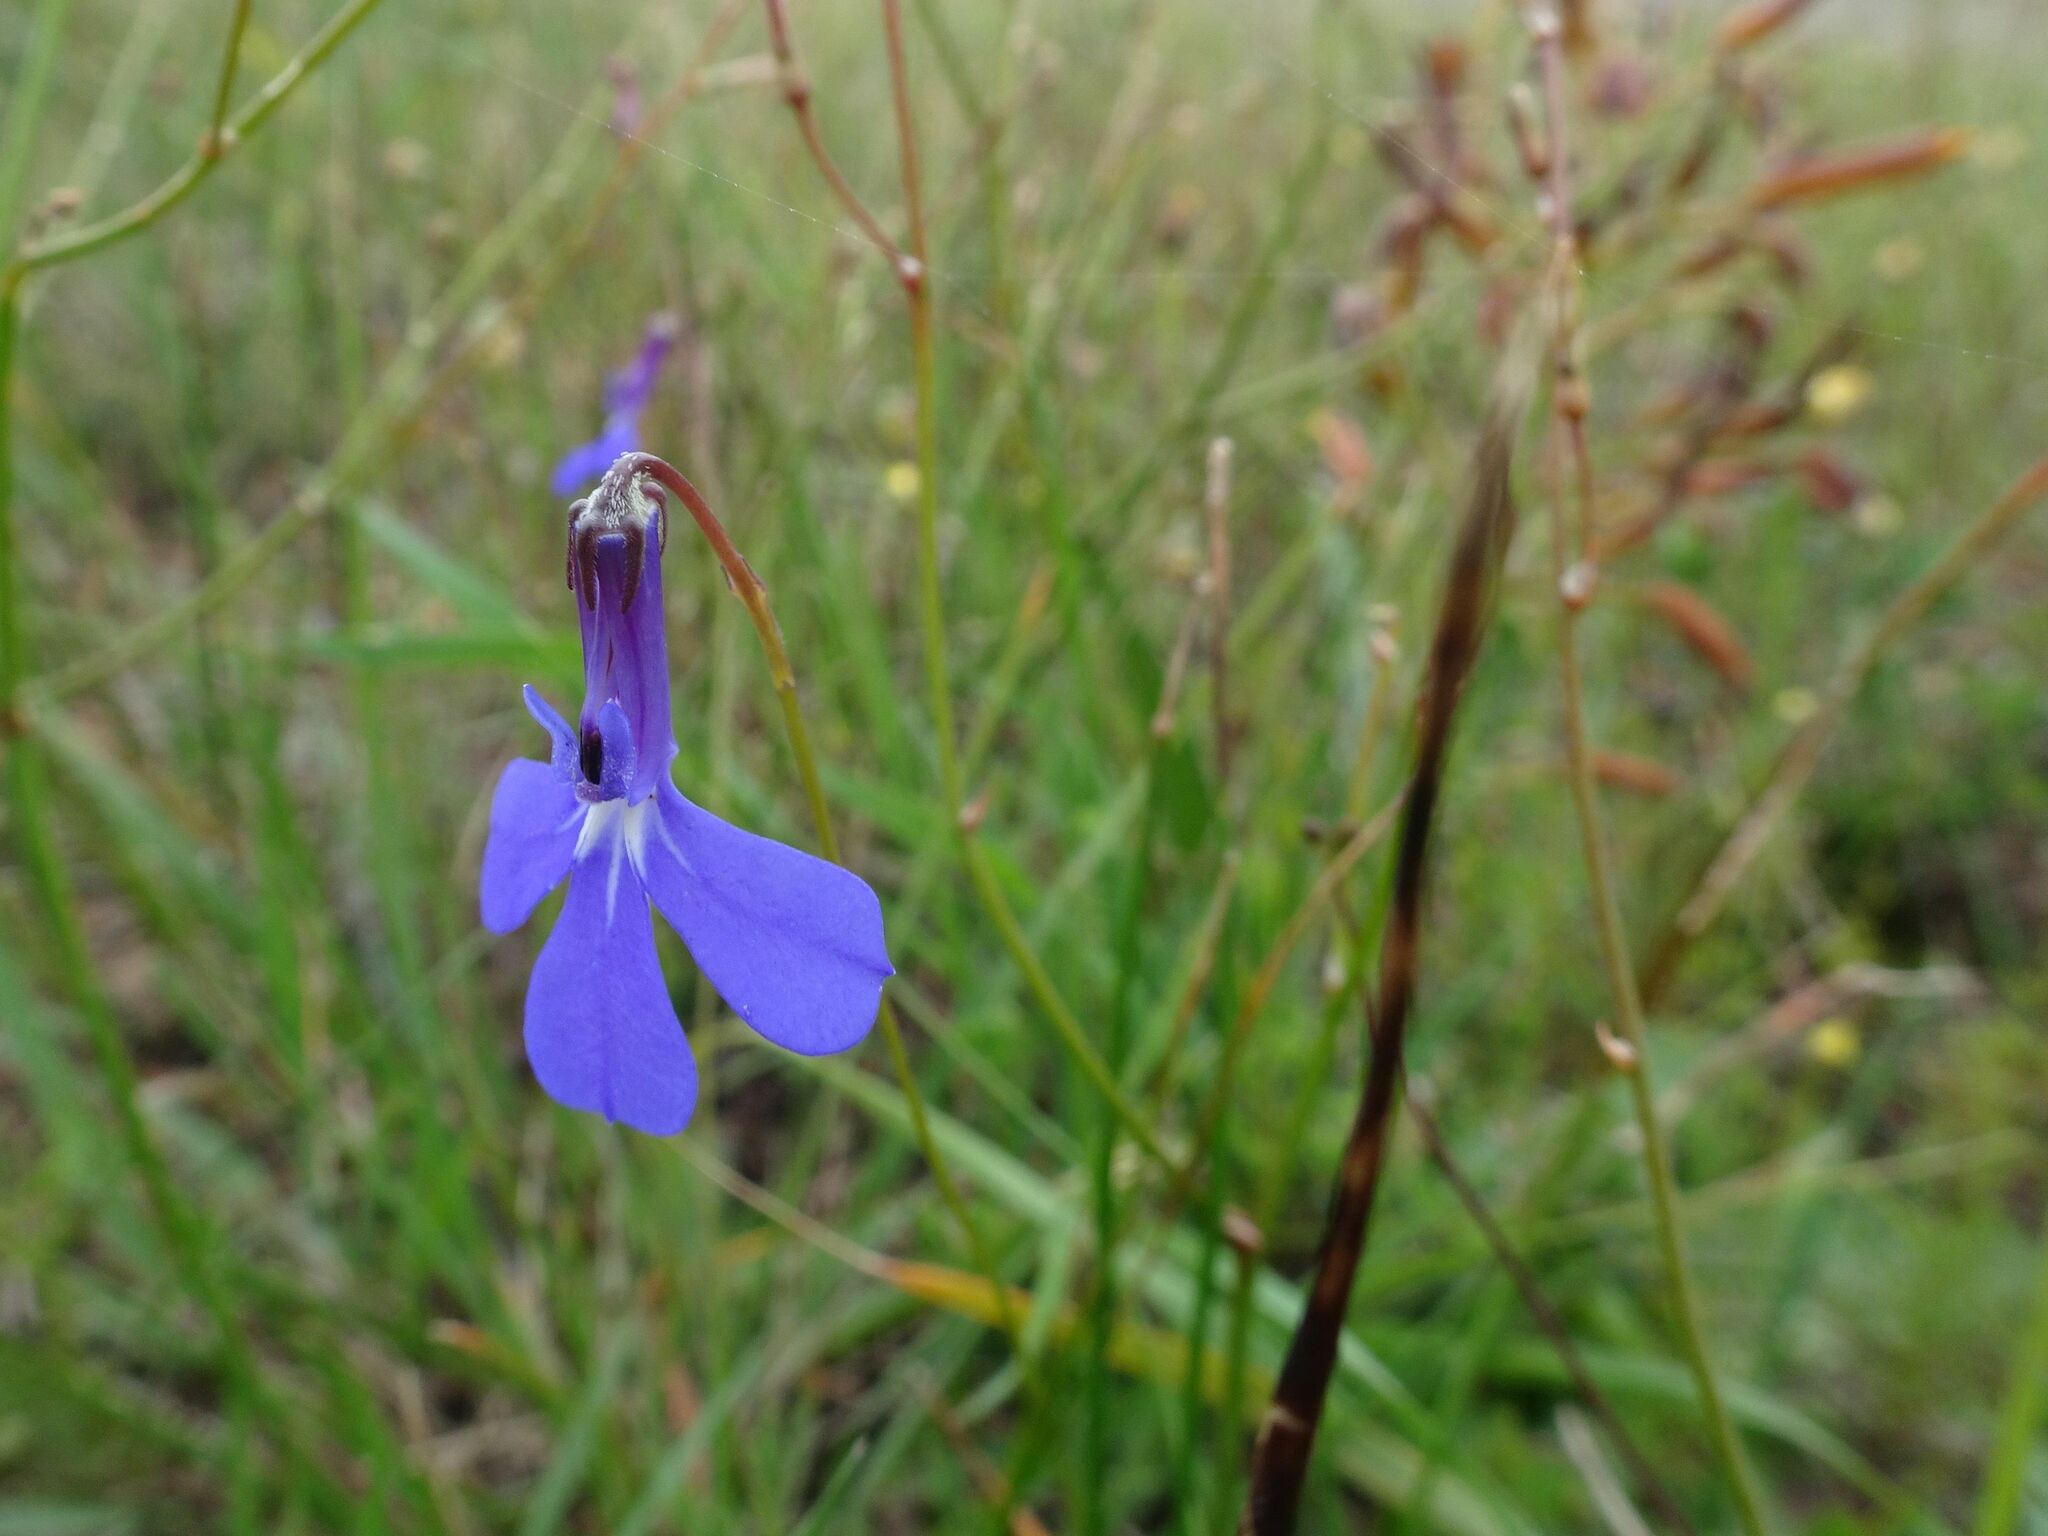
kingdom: Plantae
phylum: Tracheophyta
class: Magnoliopsida
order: Asterales
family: Campanulaceae
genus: Lobelia
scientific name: Lobelia chamaepitys
